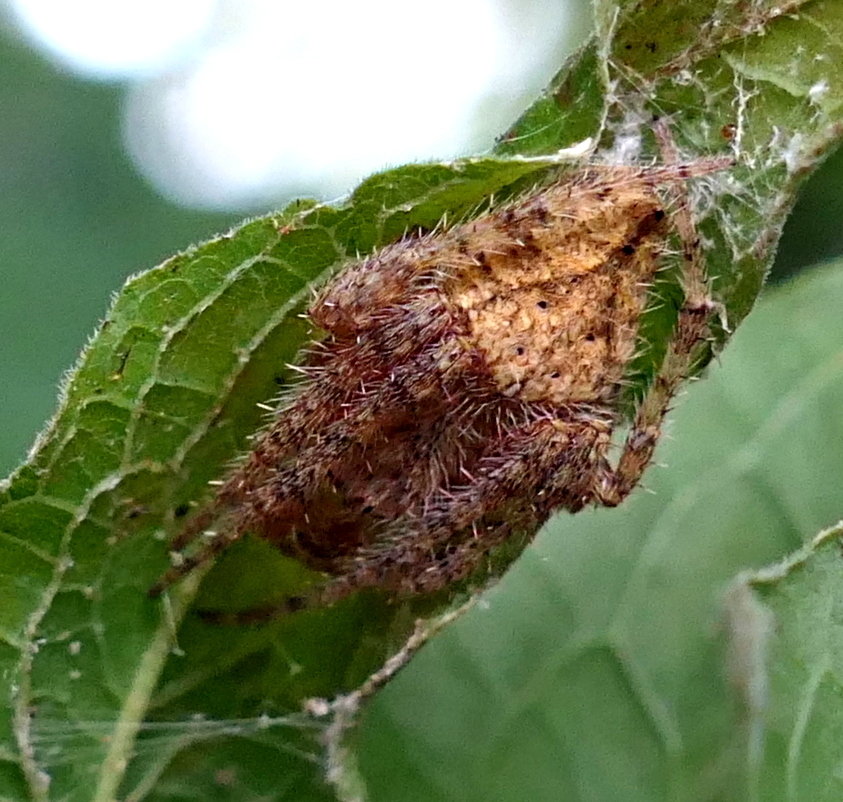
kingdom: Animalia
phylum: Arthropoda
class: Arachnida
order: Araneae
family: Araneidae
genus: Eriophora
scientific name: Eriophora edax
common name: Orb weavers
